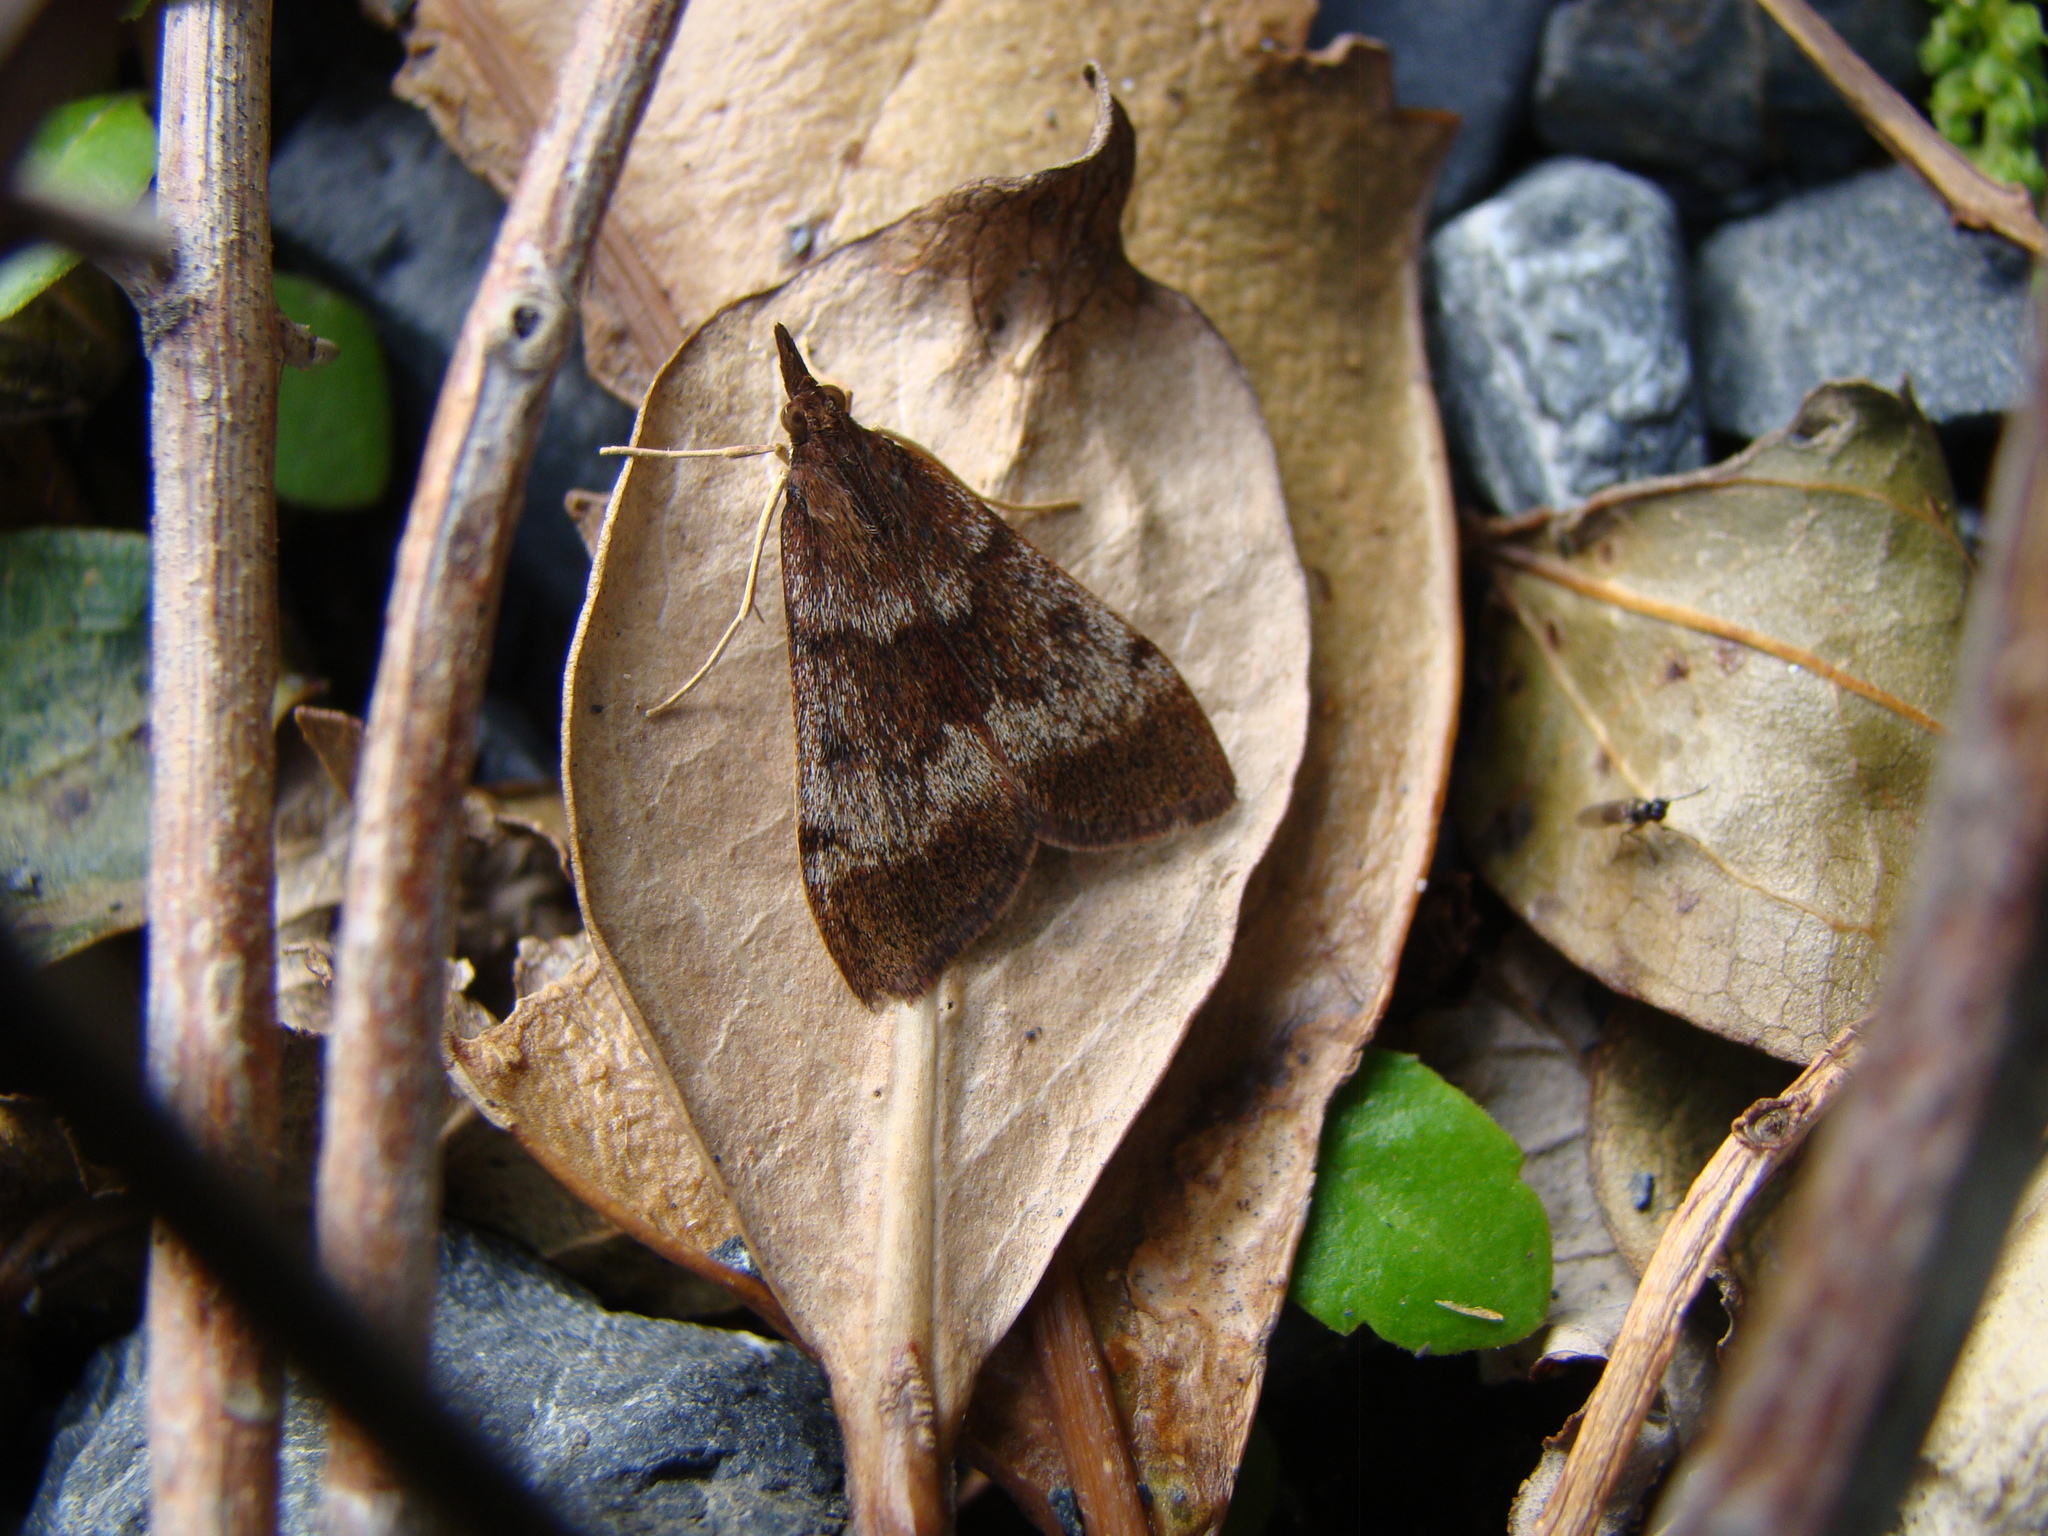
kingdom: Animalia
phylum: Arthropoda
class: Insecta
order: Lepidoptera
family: Crambidae
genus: Uresiphita
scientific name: Uresiphita
